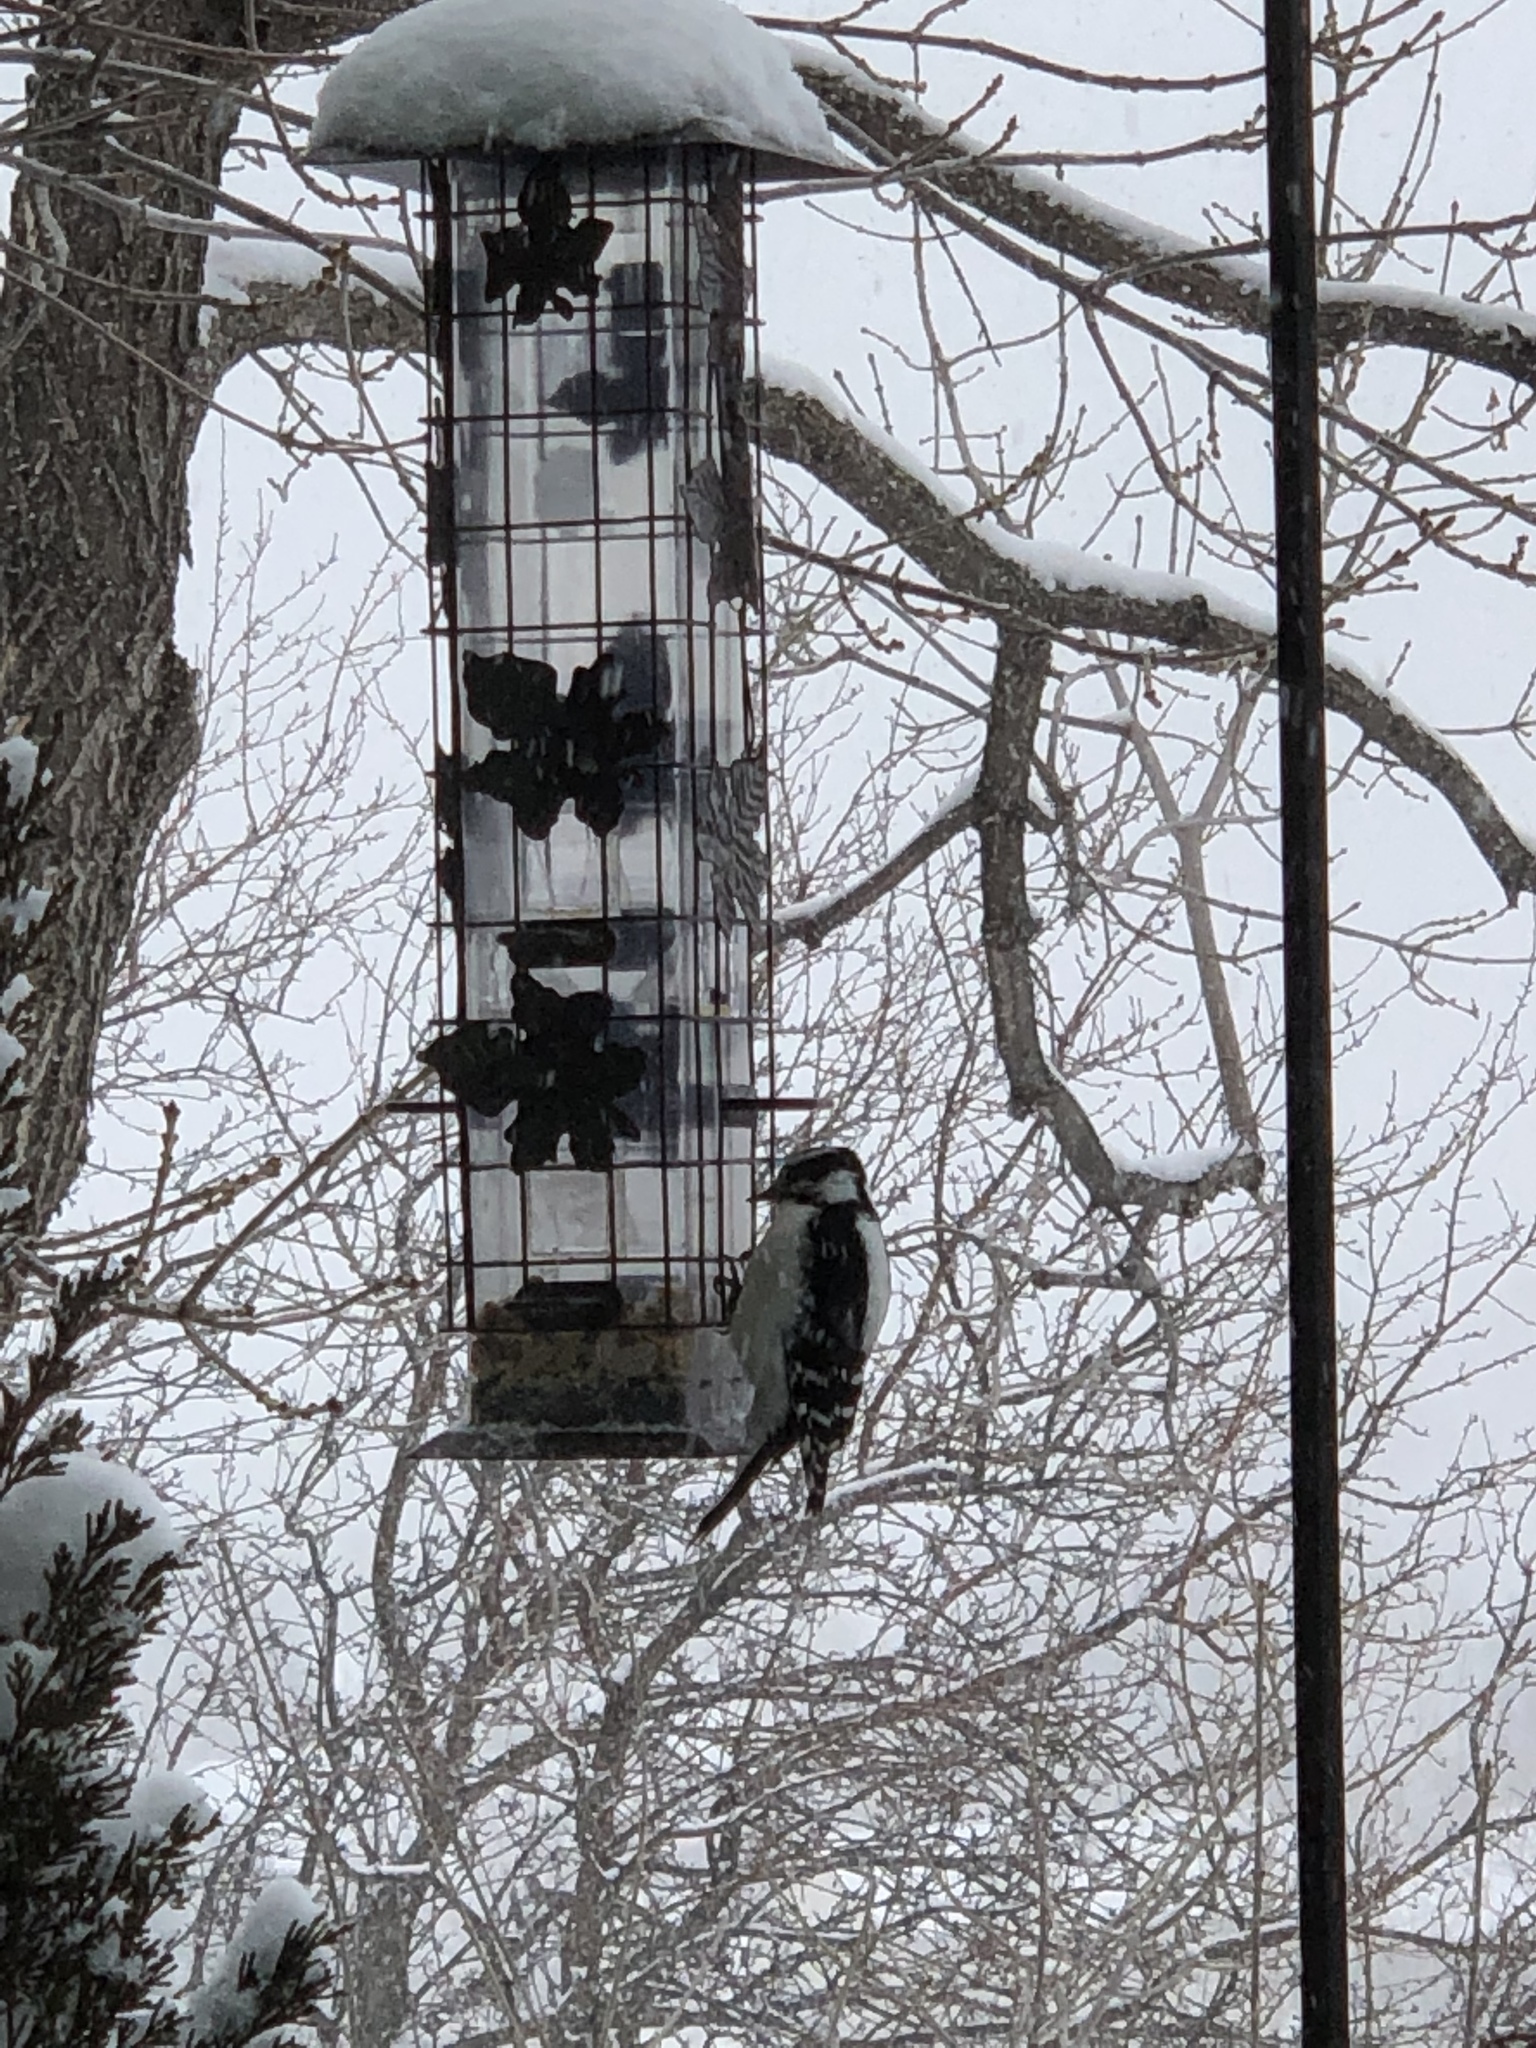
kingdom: Animalia
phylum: Chordata
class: Aves
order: Piciformes
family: Picidae
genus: Dryobates
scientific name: Dryobates pubescens
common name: Downy woodpecker
